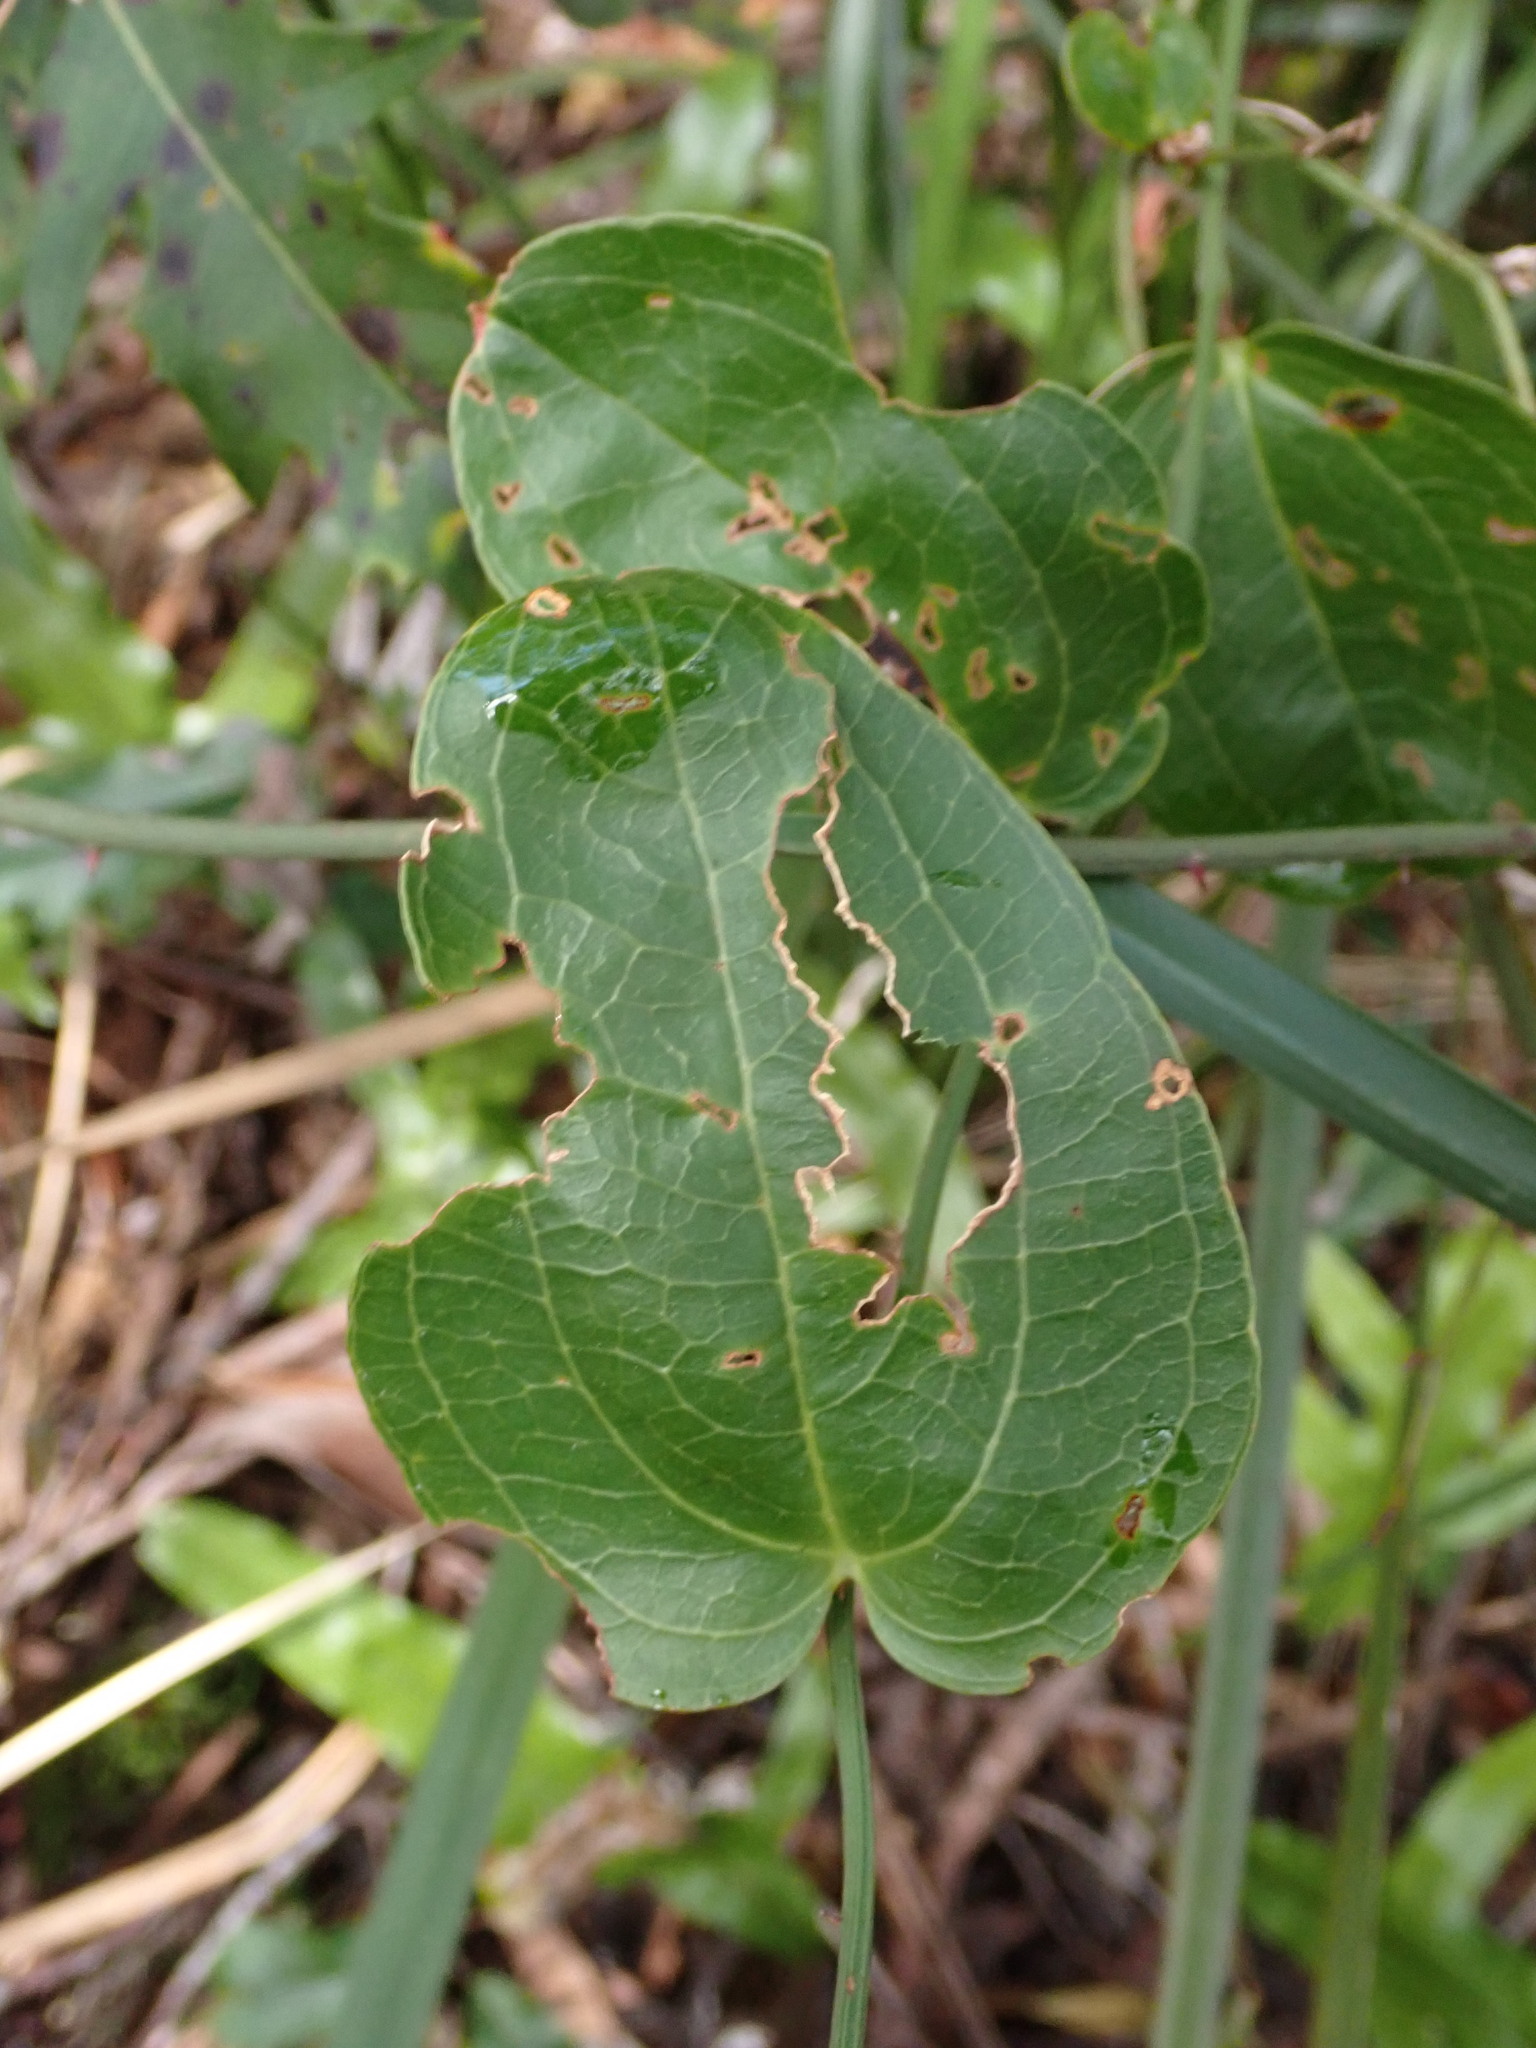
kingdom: Plantae
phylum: Tracheophyta
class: Liliopsida
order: Liliales
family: Smilacaceae
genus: Smilax
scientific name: Smilax australis
